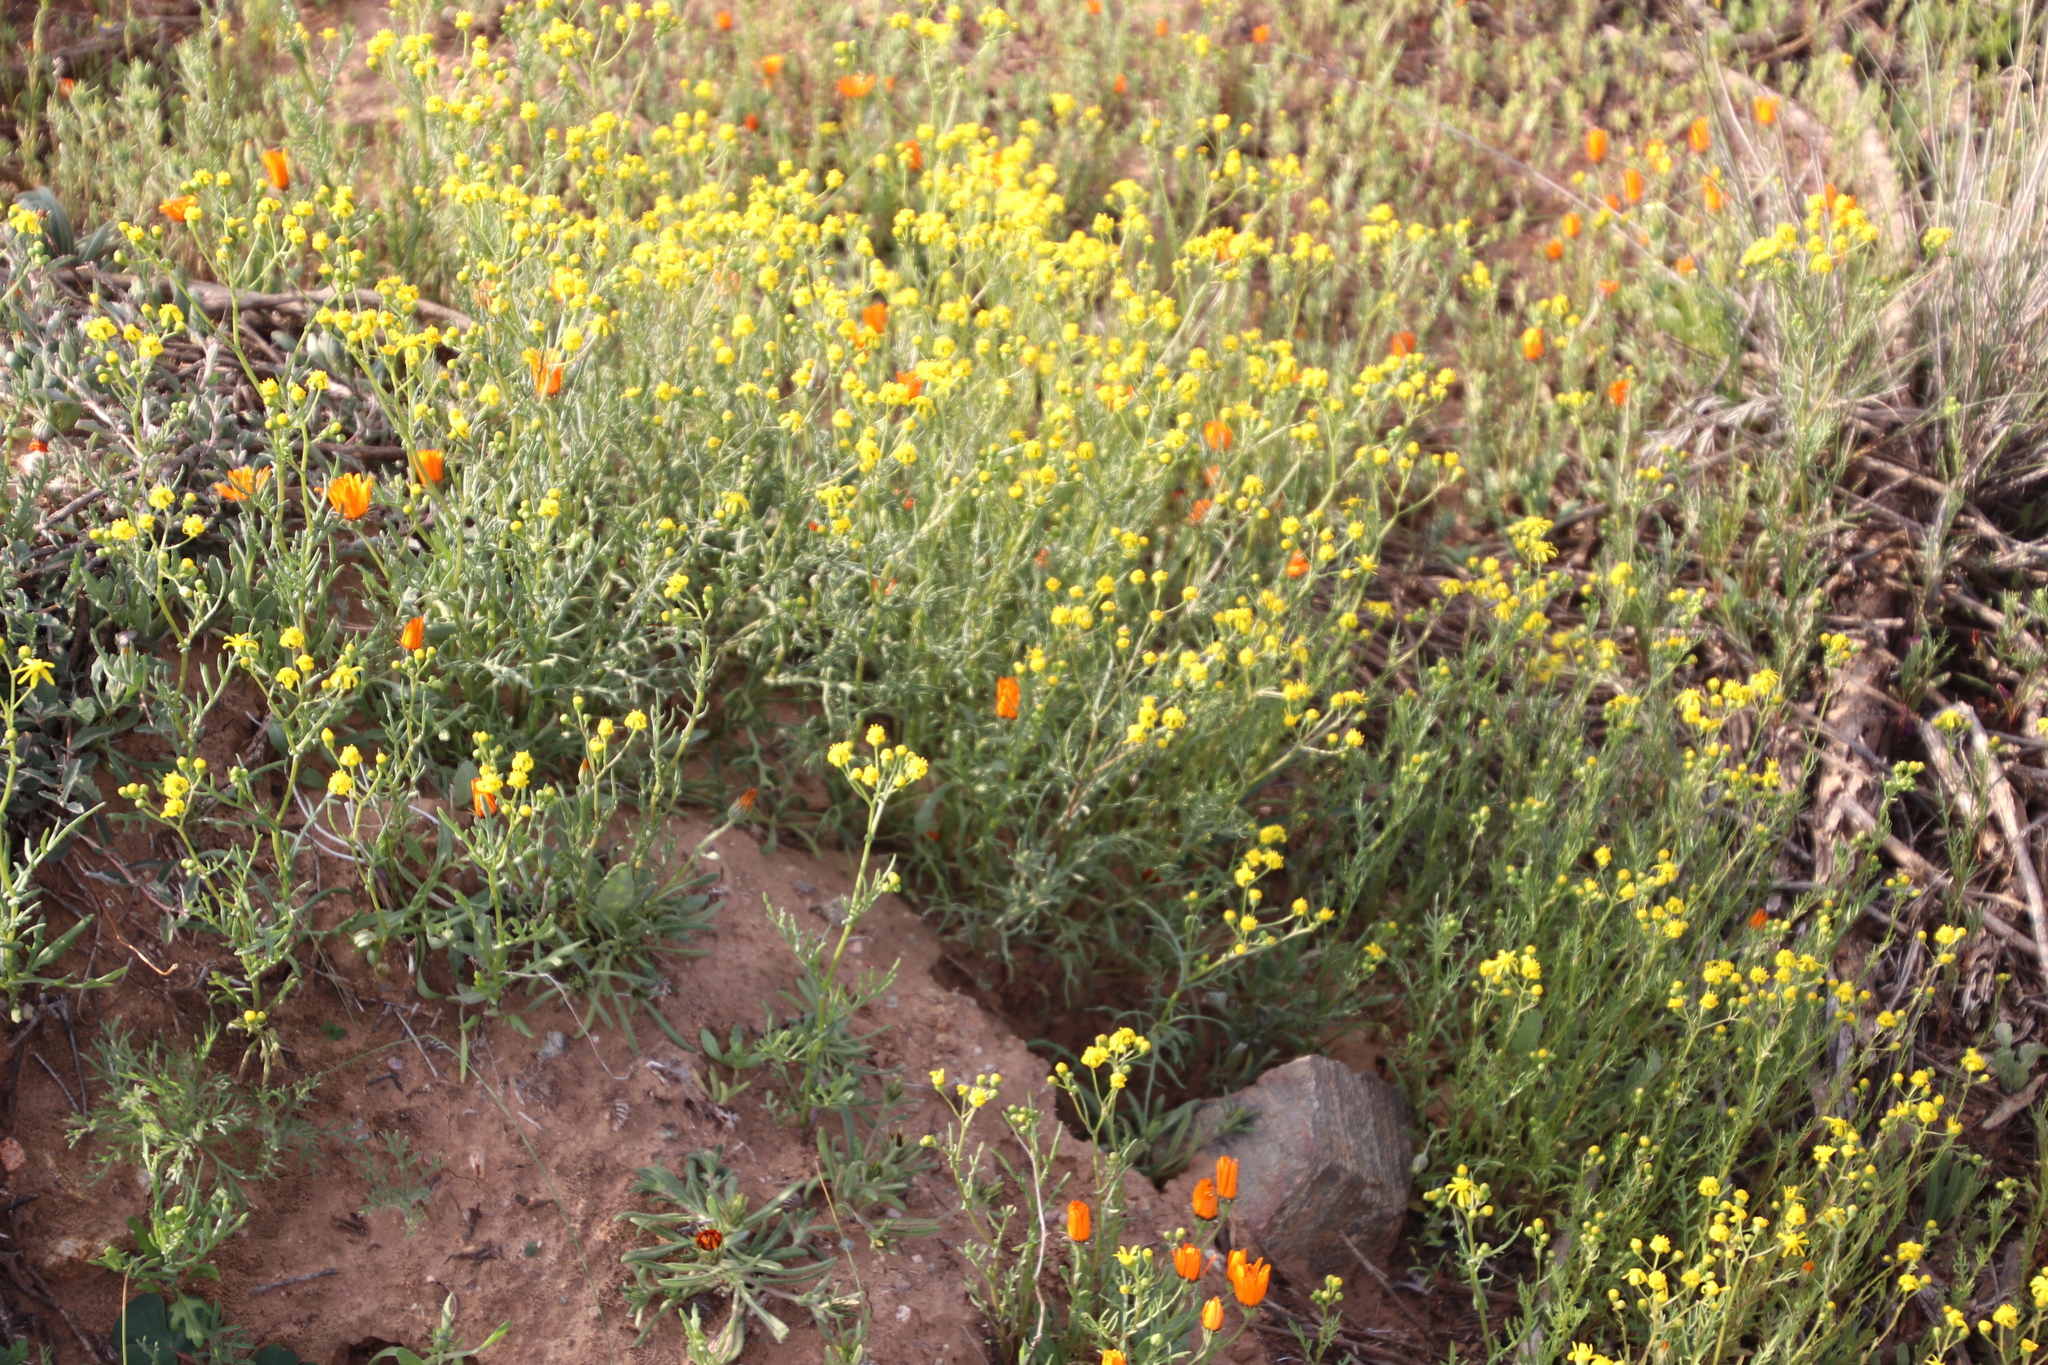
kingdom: Plantae
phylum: Tracheophyta
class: Magnoliopsida
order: Asterales
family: Asteraceae
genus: Senecio
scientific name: Senecio abruptus
